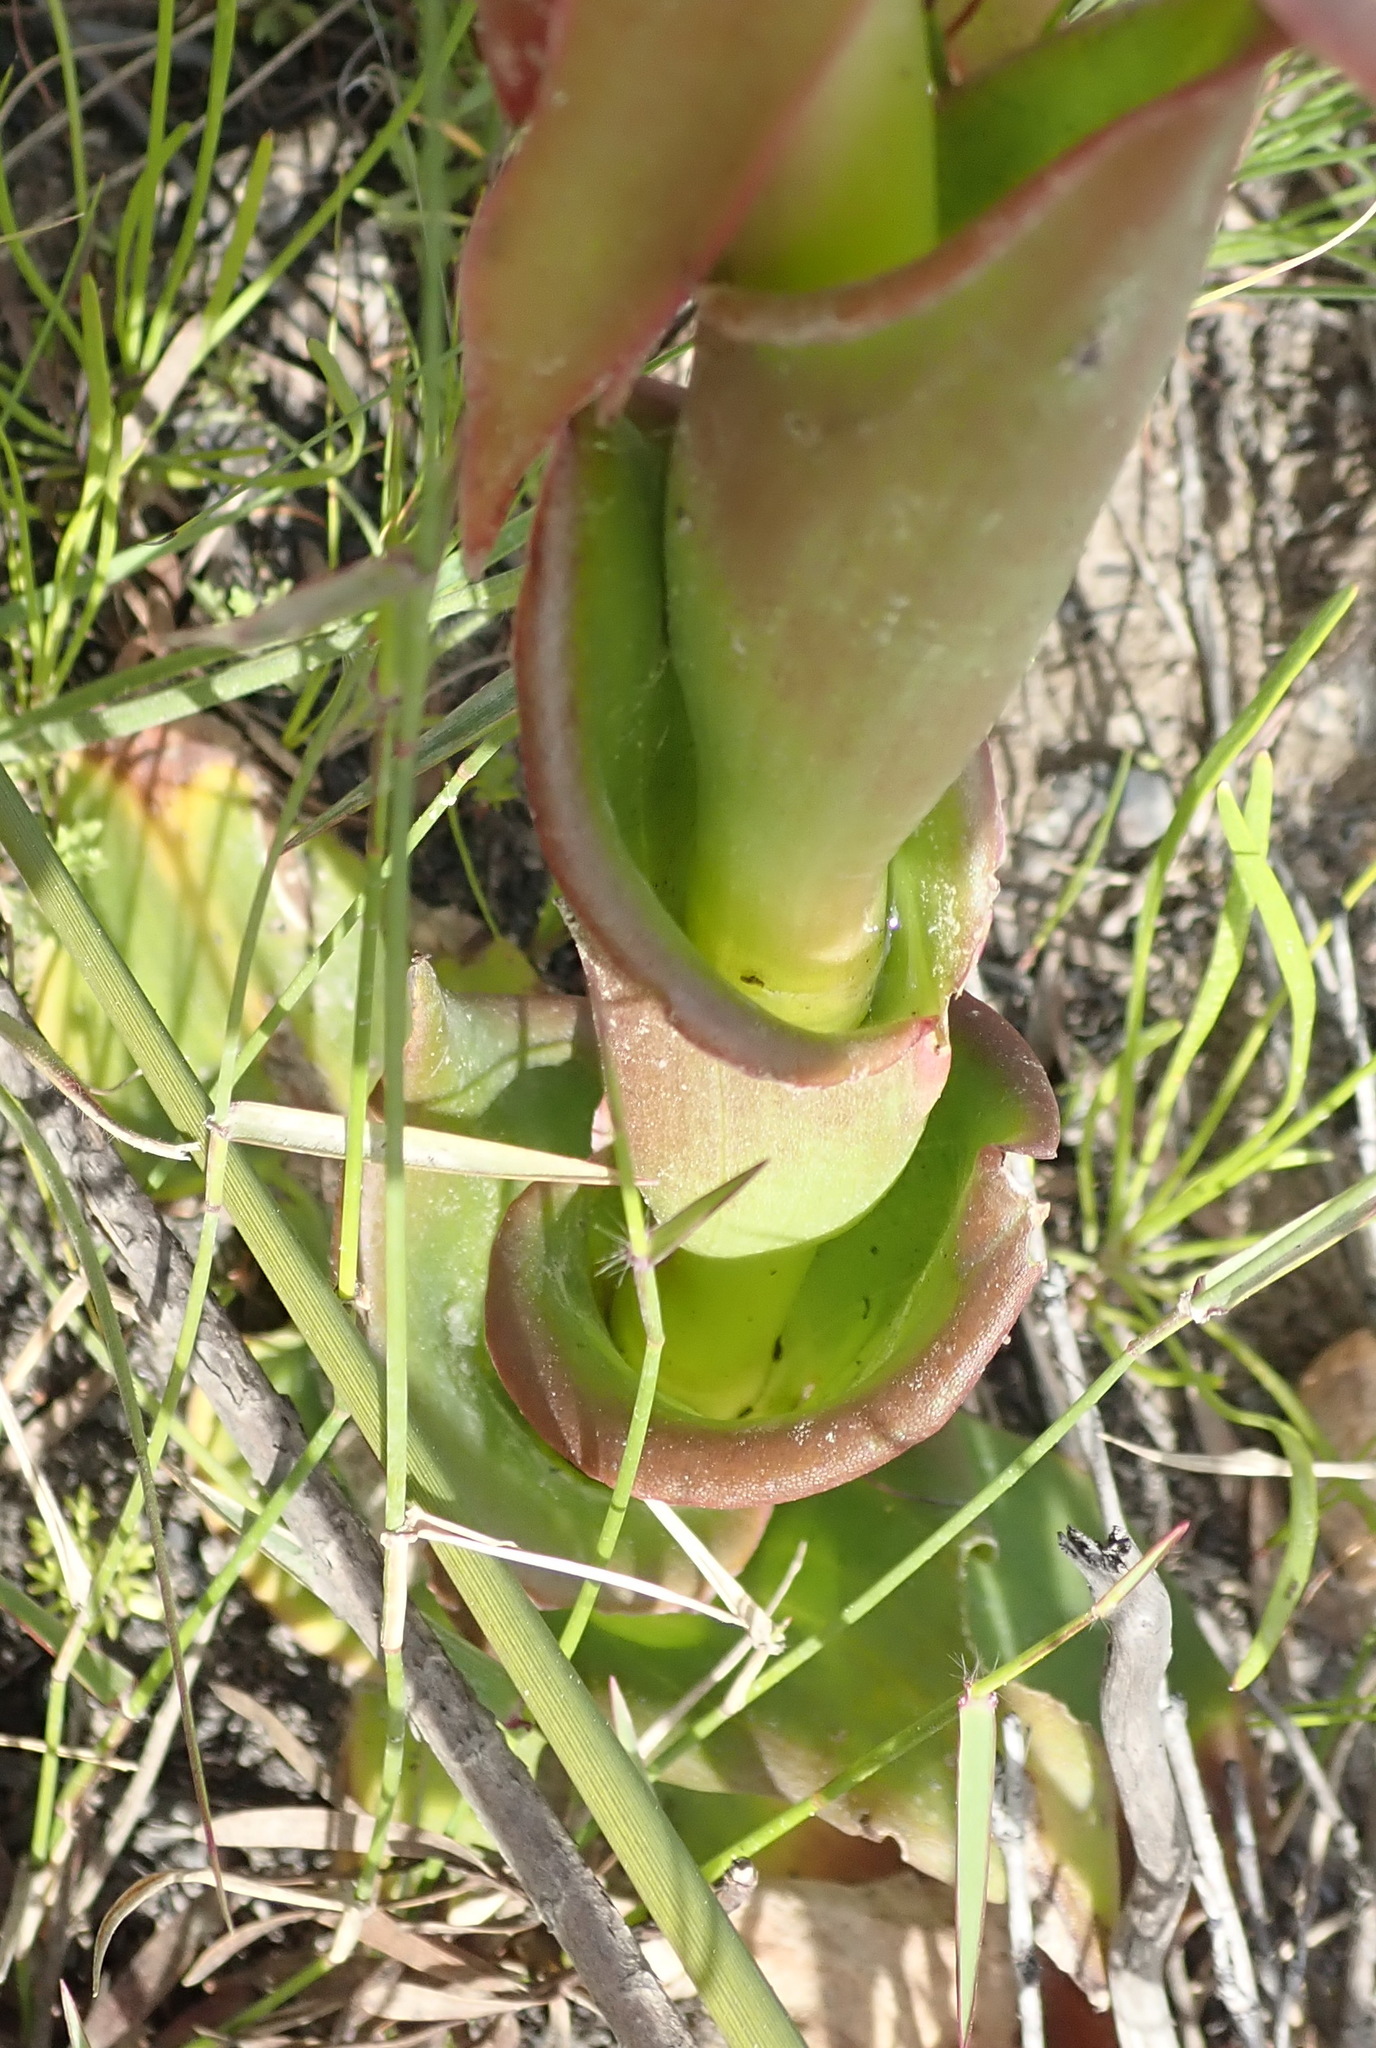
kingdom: Plantae
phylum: Tracheophyta
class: Liliopsida
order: Asparagales
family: Orchidaceae
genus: Satyrium
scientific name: Satyrium acuminatum
